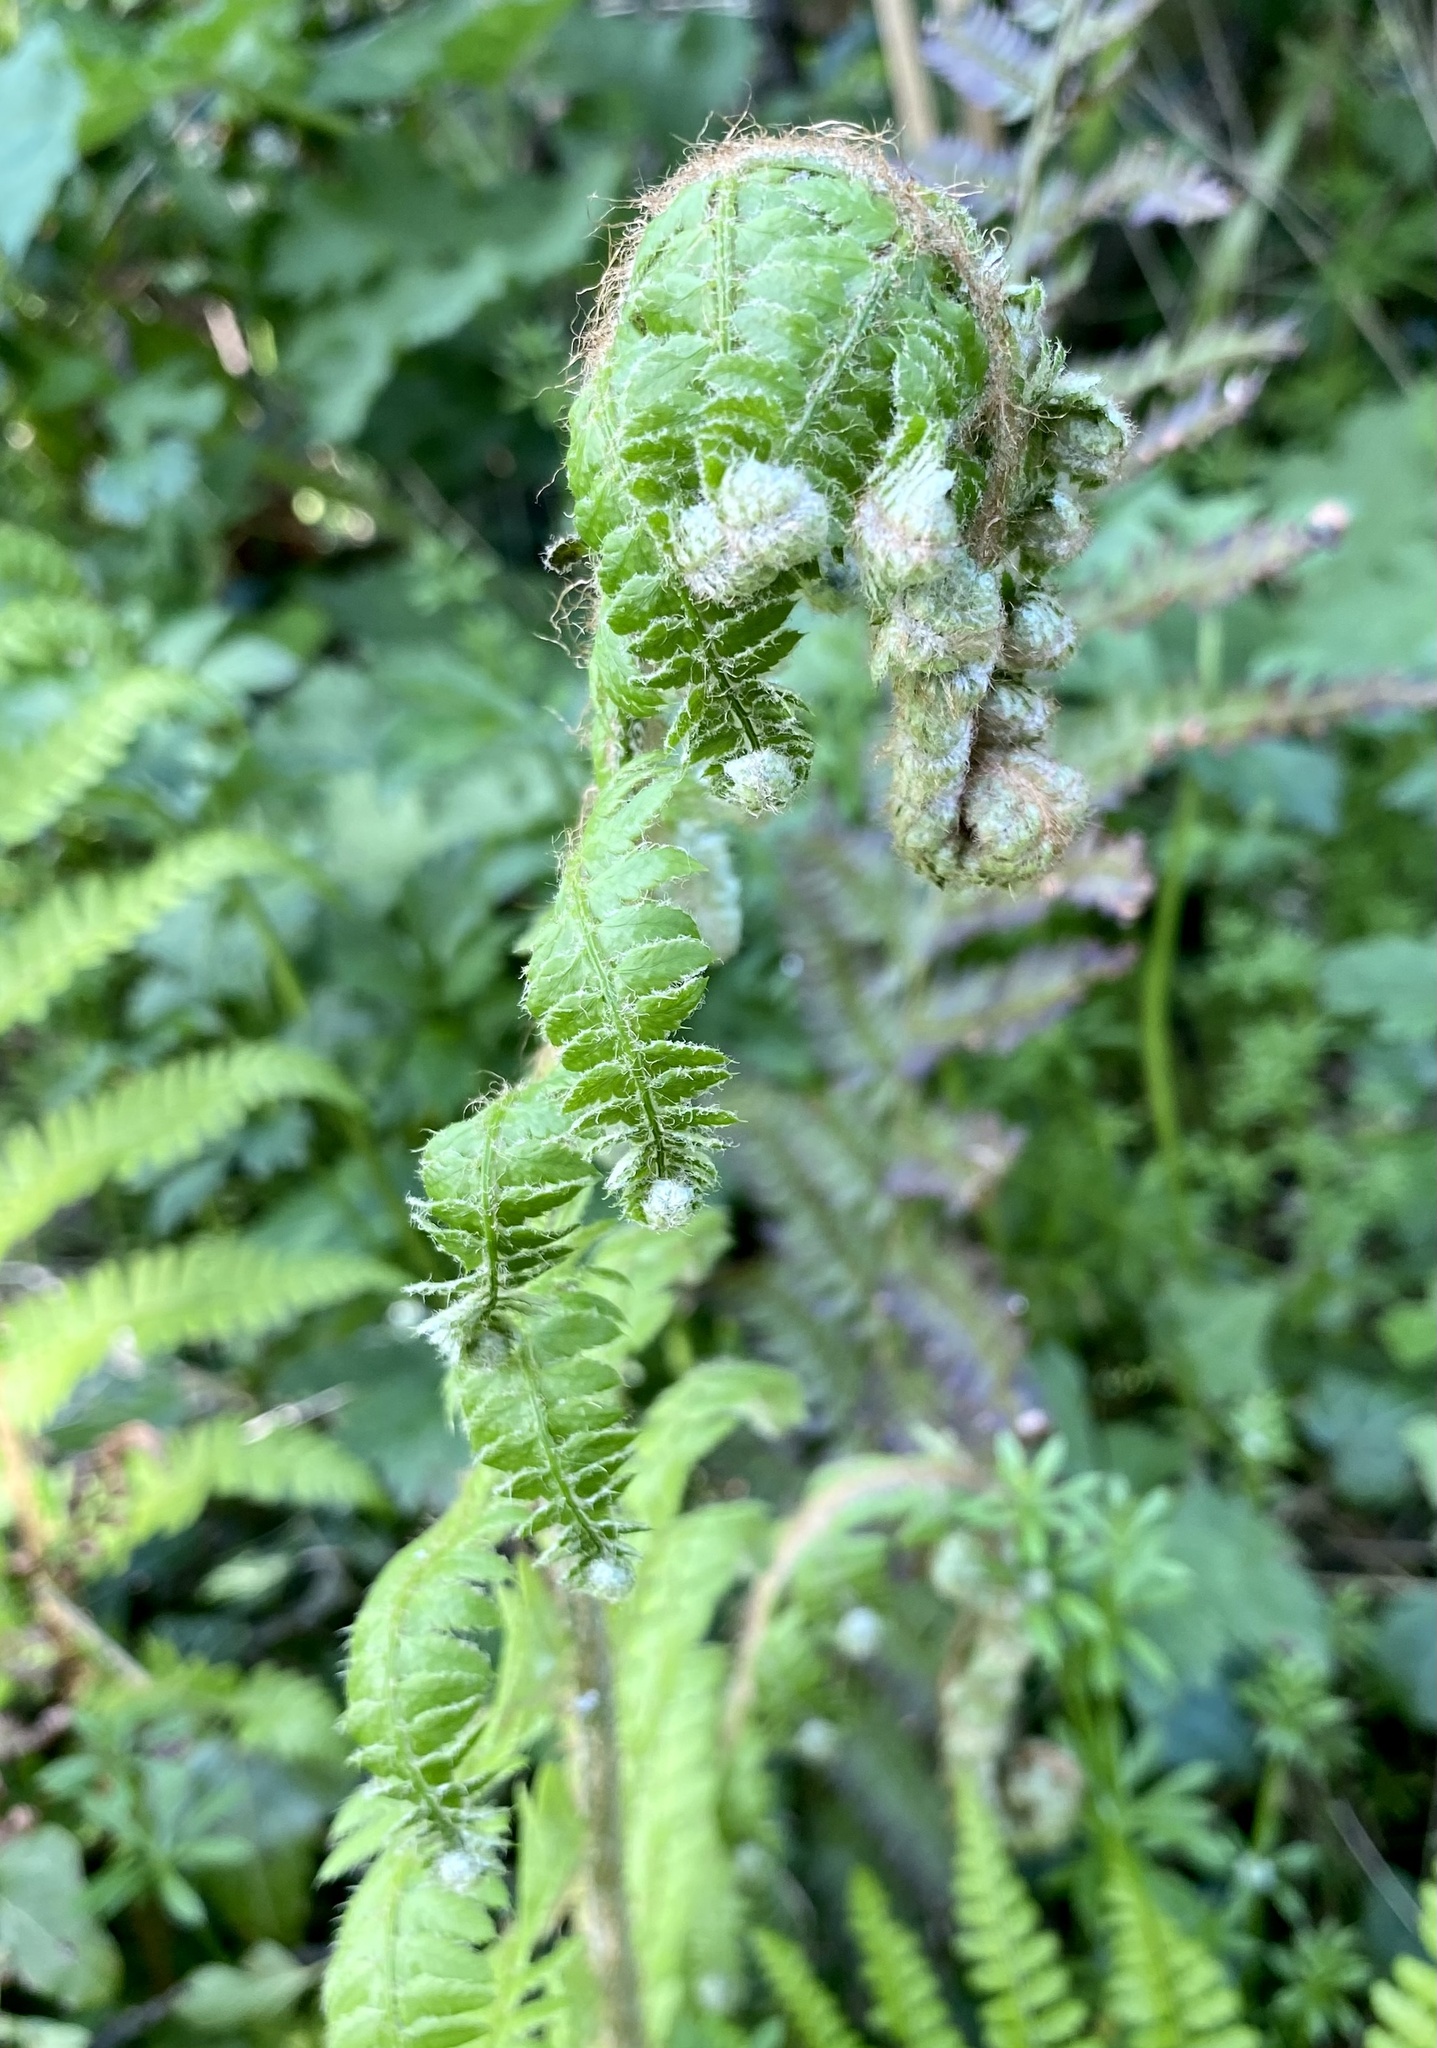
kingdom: Plantae
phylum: Tracheophyta
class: Polypodiopsida
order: Polypodiales
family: Dryopteridaceae
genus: Polystichum
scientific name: Polystichum setiferum
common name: Soft shield-fern
